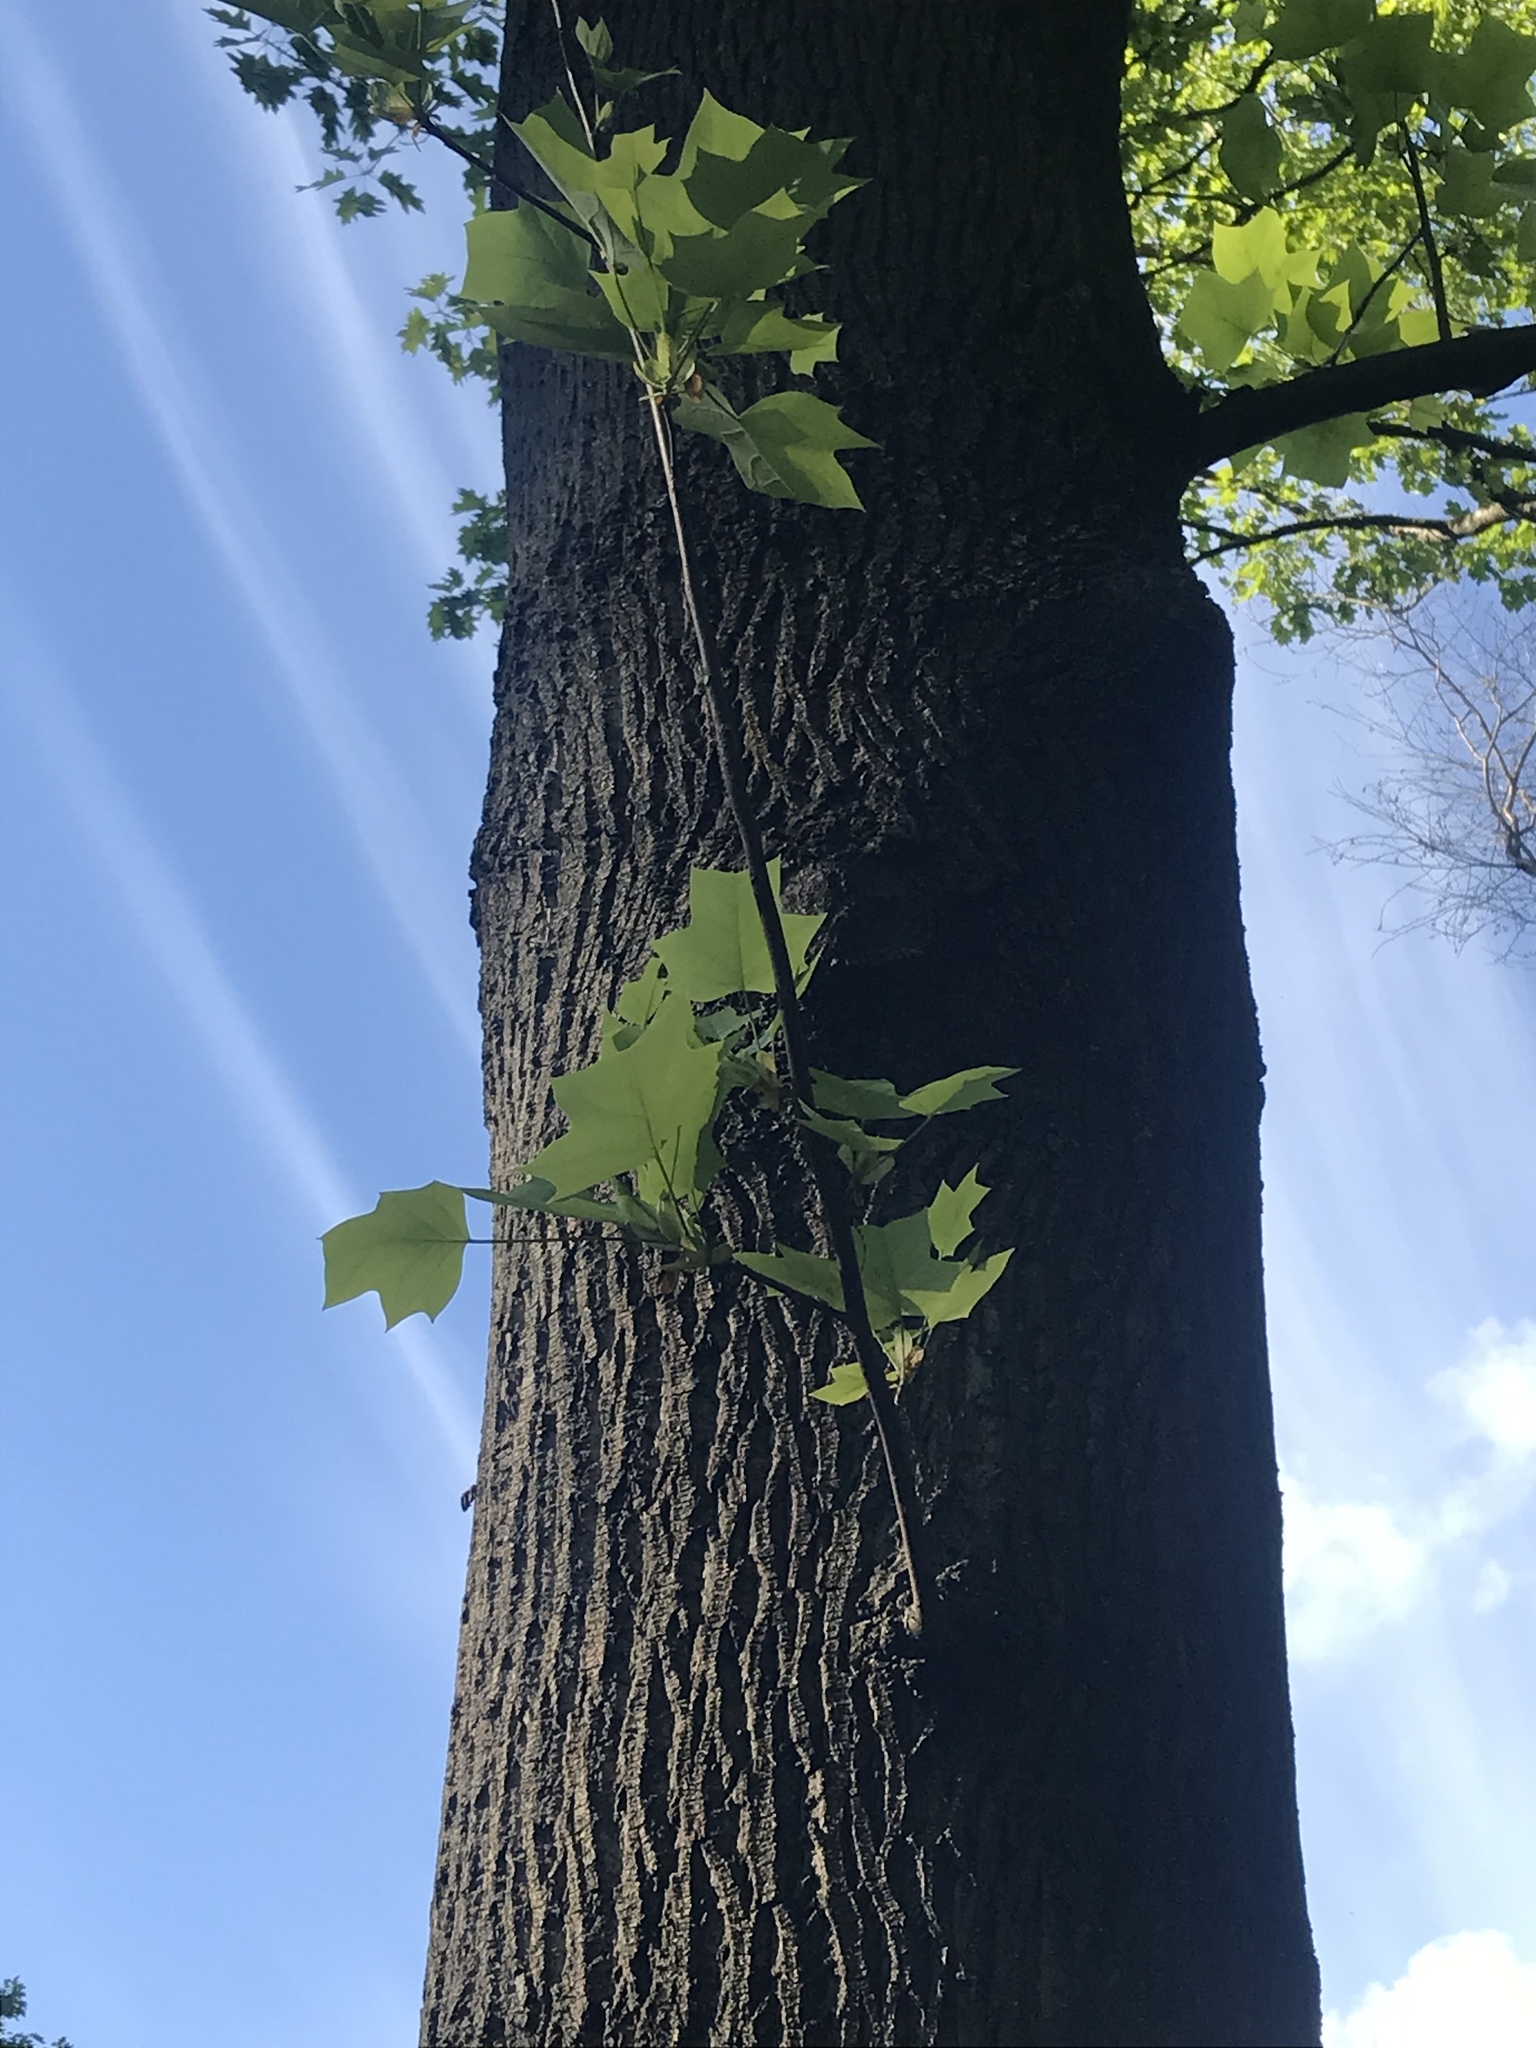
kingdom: Plantae
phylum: Tracheophyta
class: Magnoliopsida
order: Magnoliales
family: Magnoliaceae
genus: Liriodendron
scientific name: Liriodendron tulipifera
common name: Tulip tree
